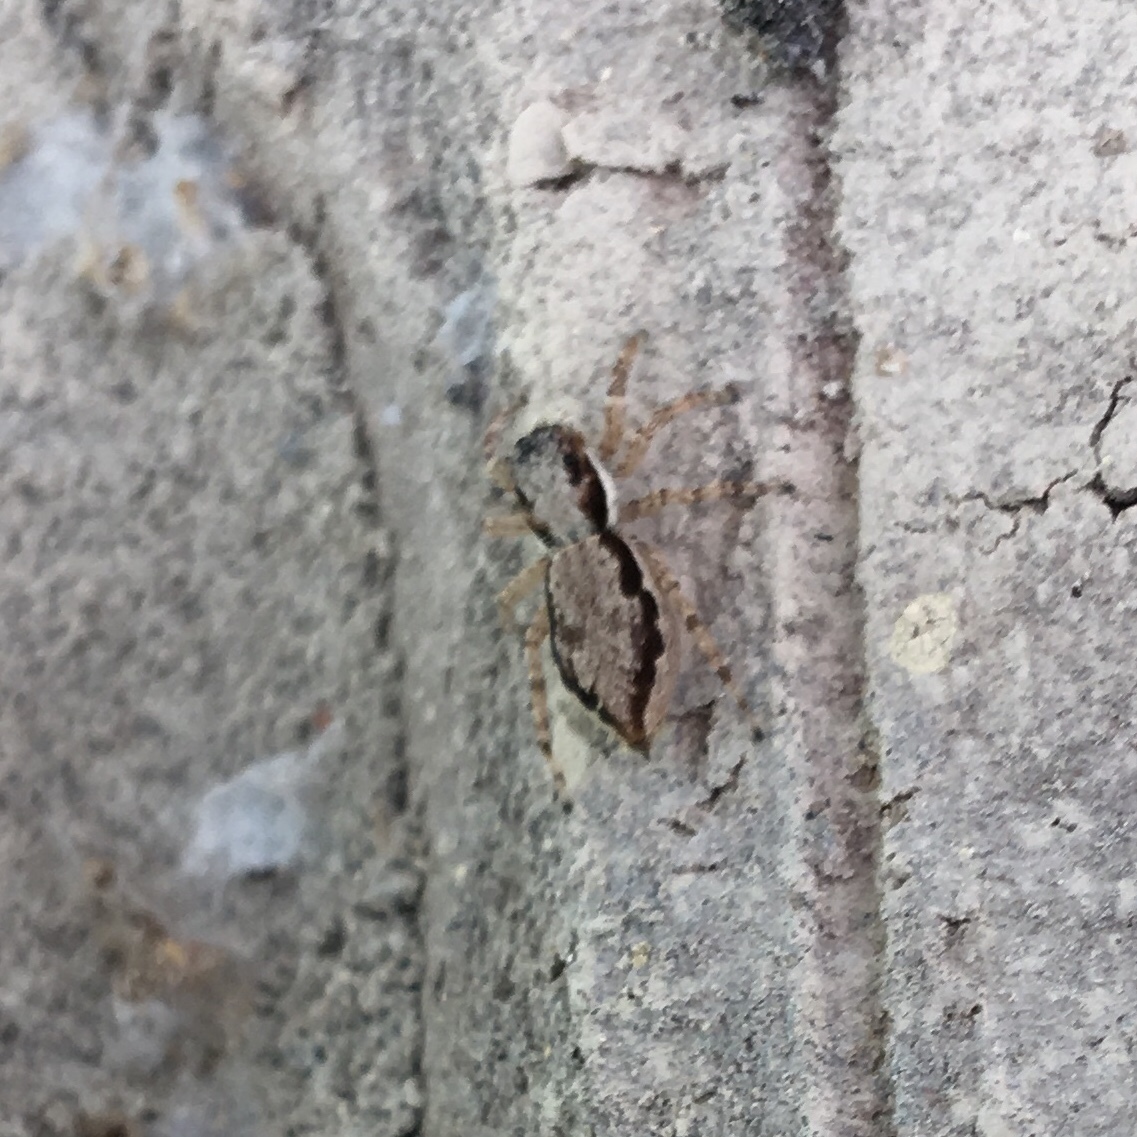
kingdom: Animalia
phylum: Arthropoda
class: Arachnida
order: Araneae
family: Salticidae
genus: Menemerus
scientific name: Menemerus bivittatus
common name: Gray wall jumper
